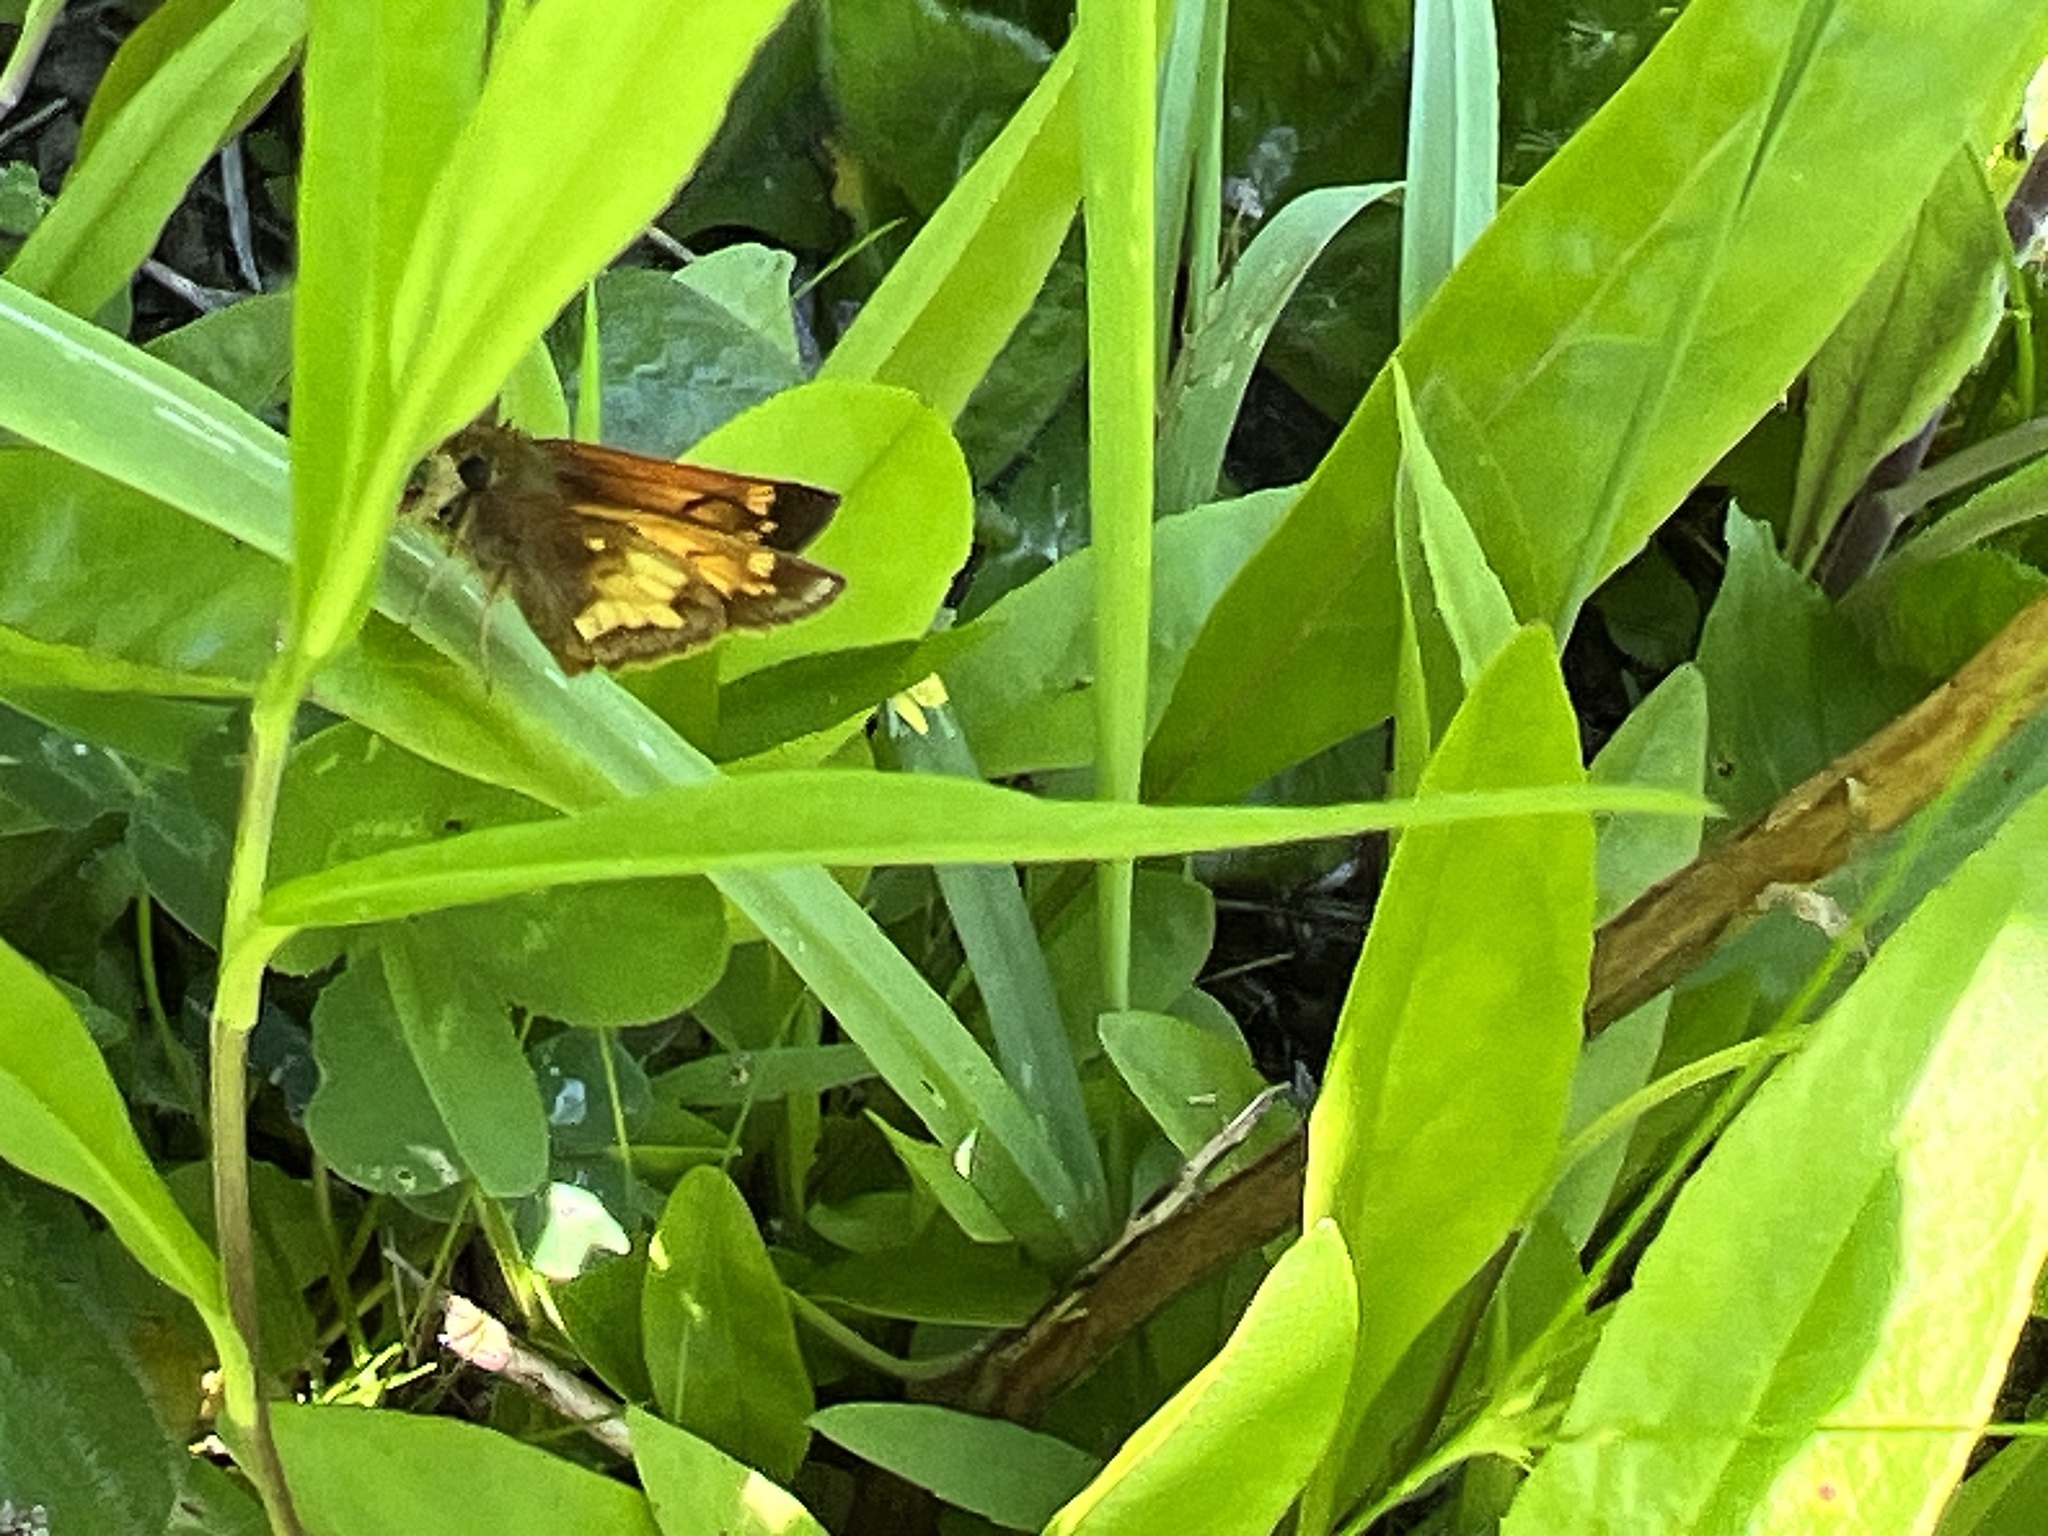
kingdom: Animalia
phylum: Arthropoda
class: Insecta
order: Lepidoptera
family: Hesperiidae
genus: Lon
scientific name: Lon hobomok
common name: Hobomok skipper
